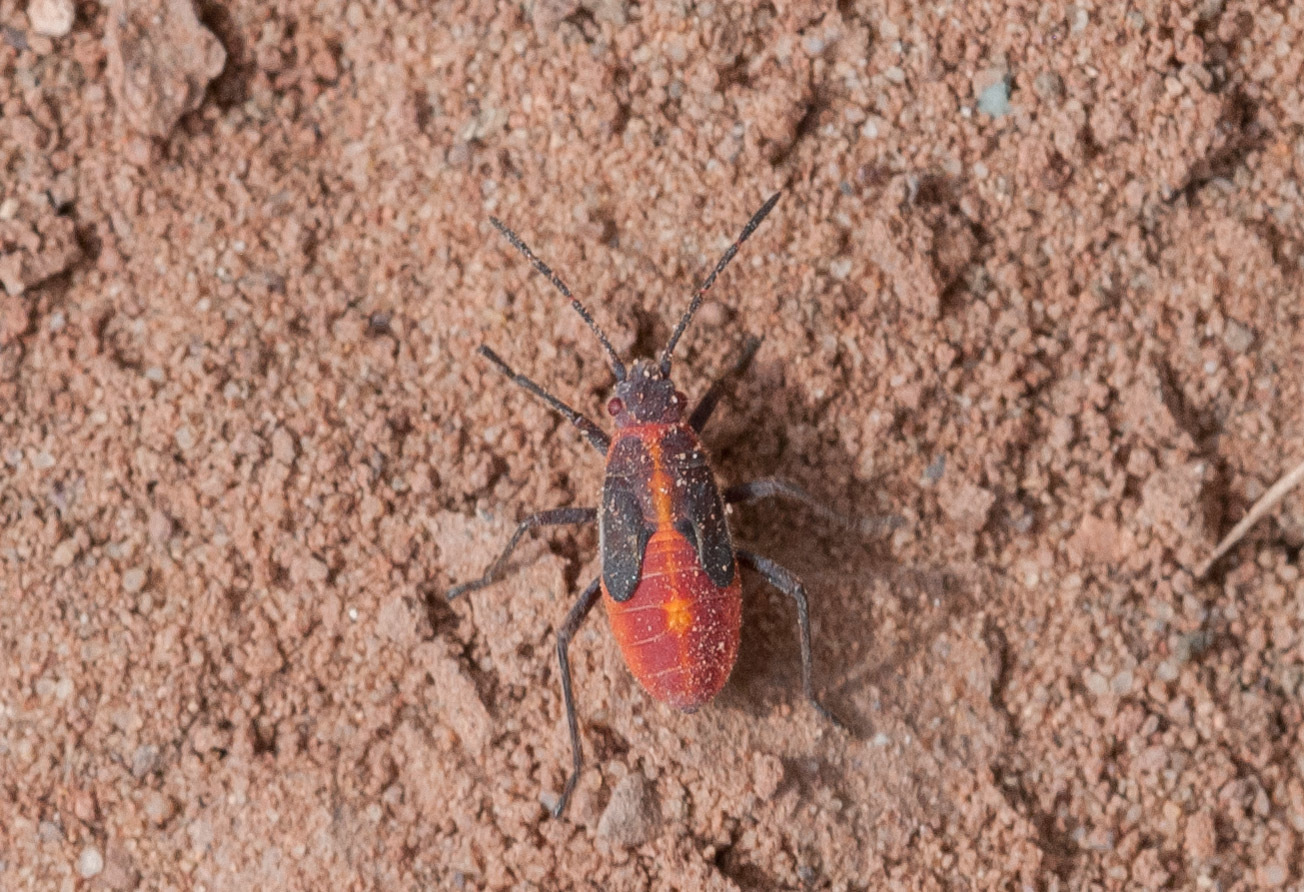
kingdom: Animalia
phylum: Arthropoda
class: Insecta
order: Hemiptera
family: Rhopalidae
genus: Boisea
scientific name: Boisea
